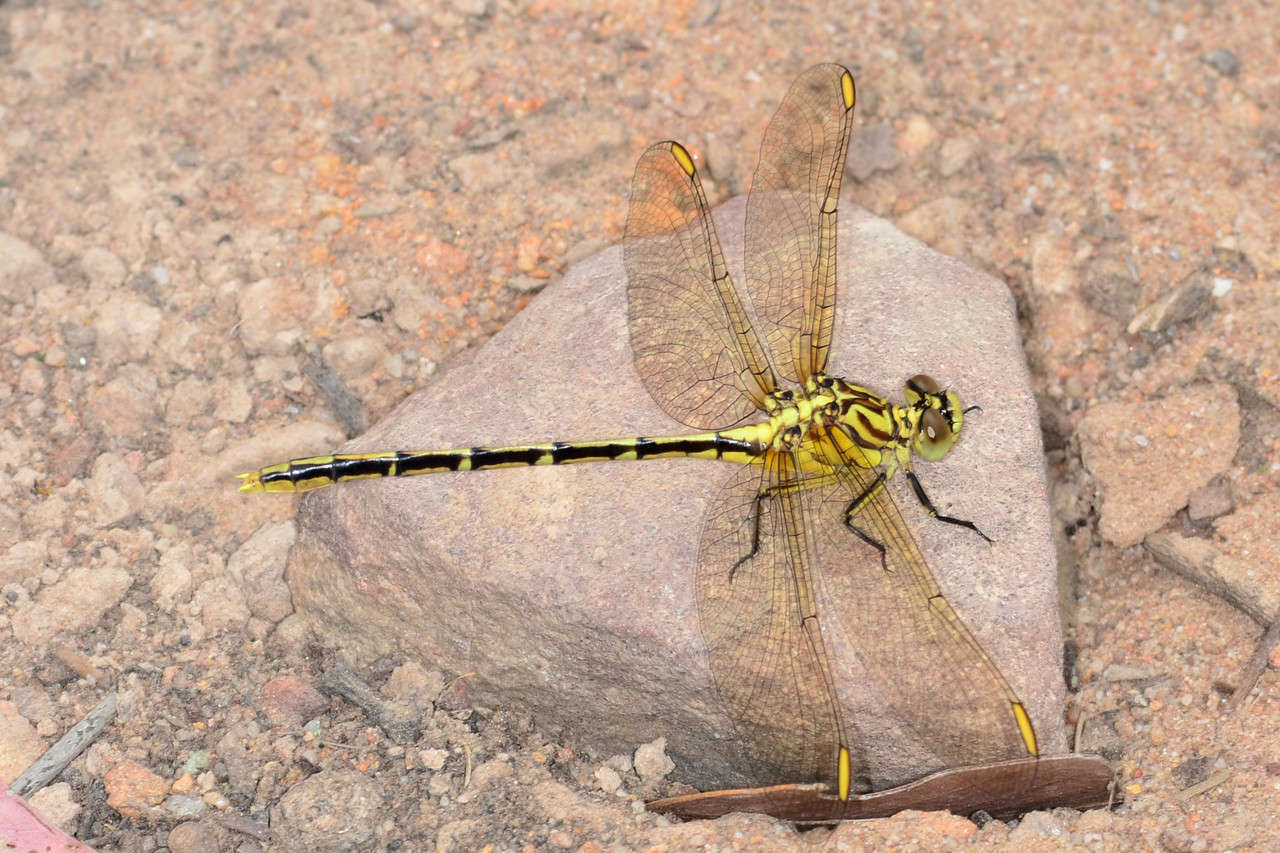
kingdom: Animalia
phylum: Arthropoda
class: Insecta
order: Odonata
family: Gomphidae
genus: Austrogomphus
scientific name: Austrogomphus guerini
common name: Yellow-striped hunter
